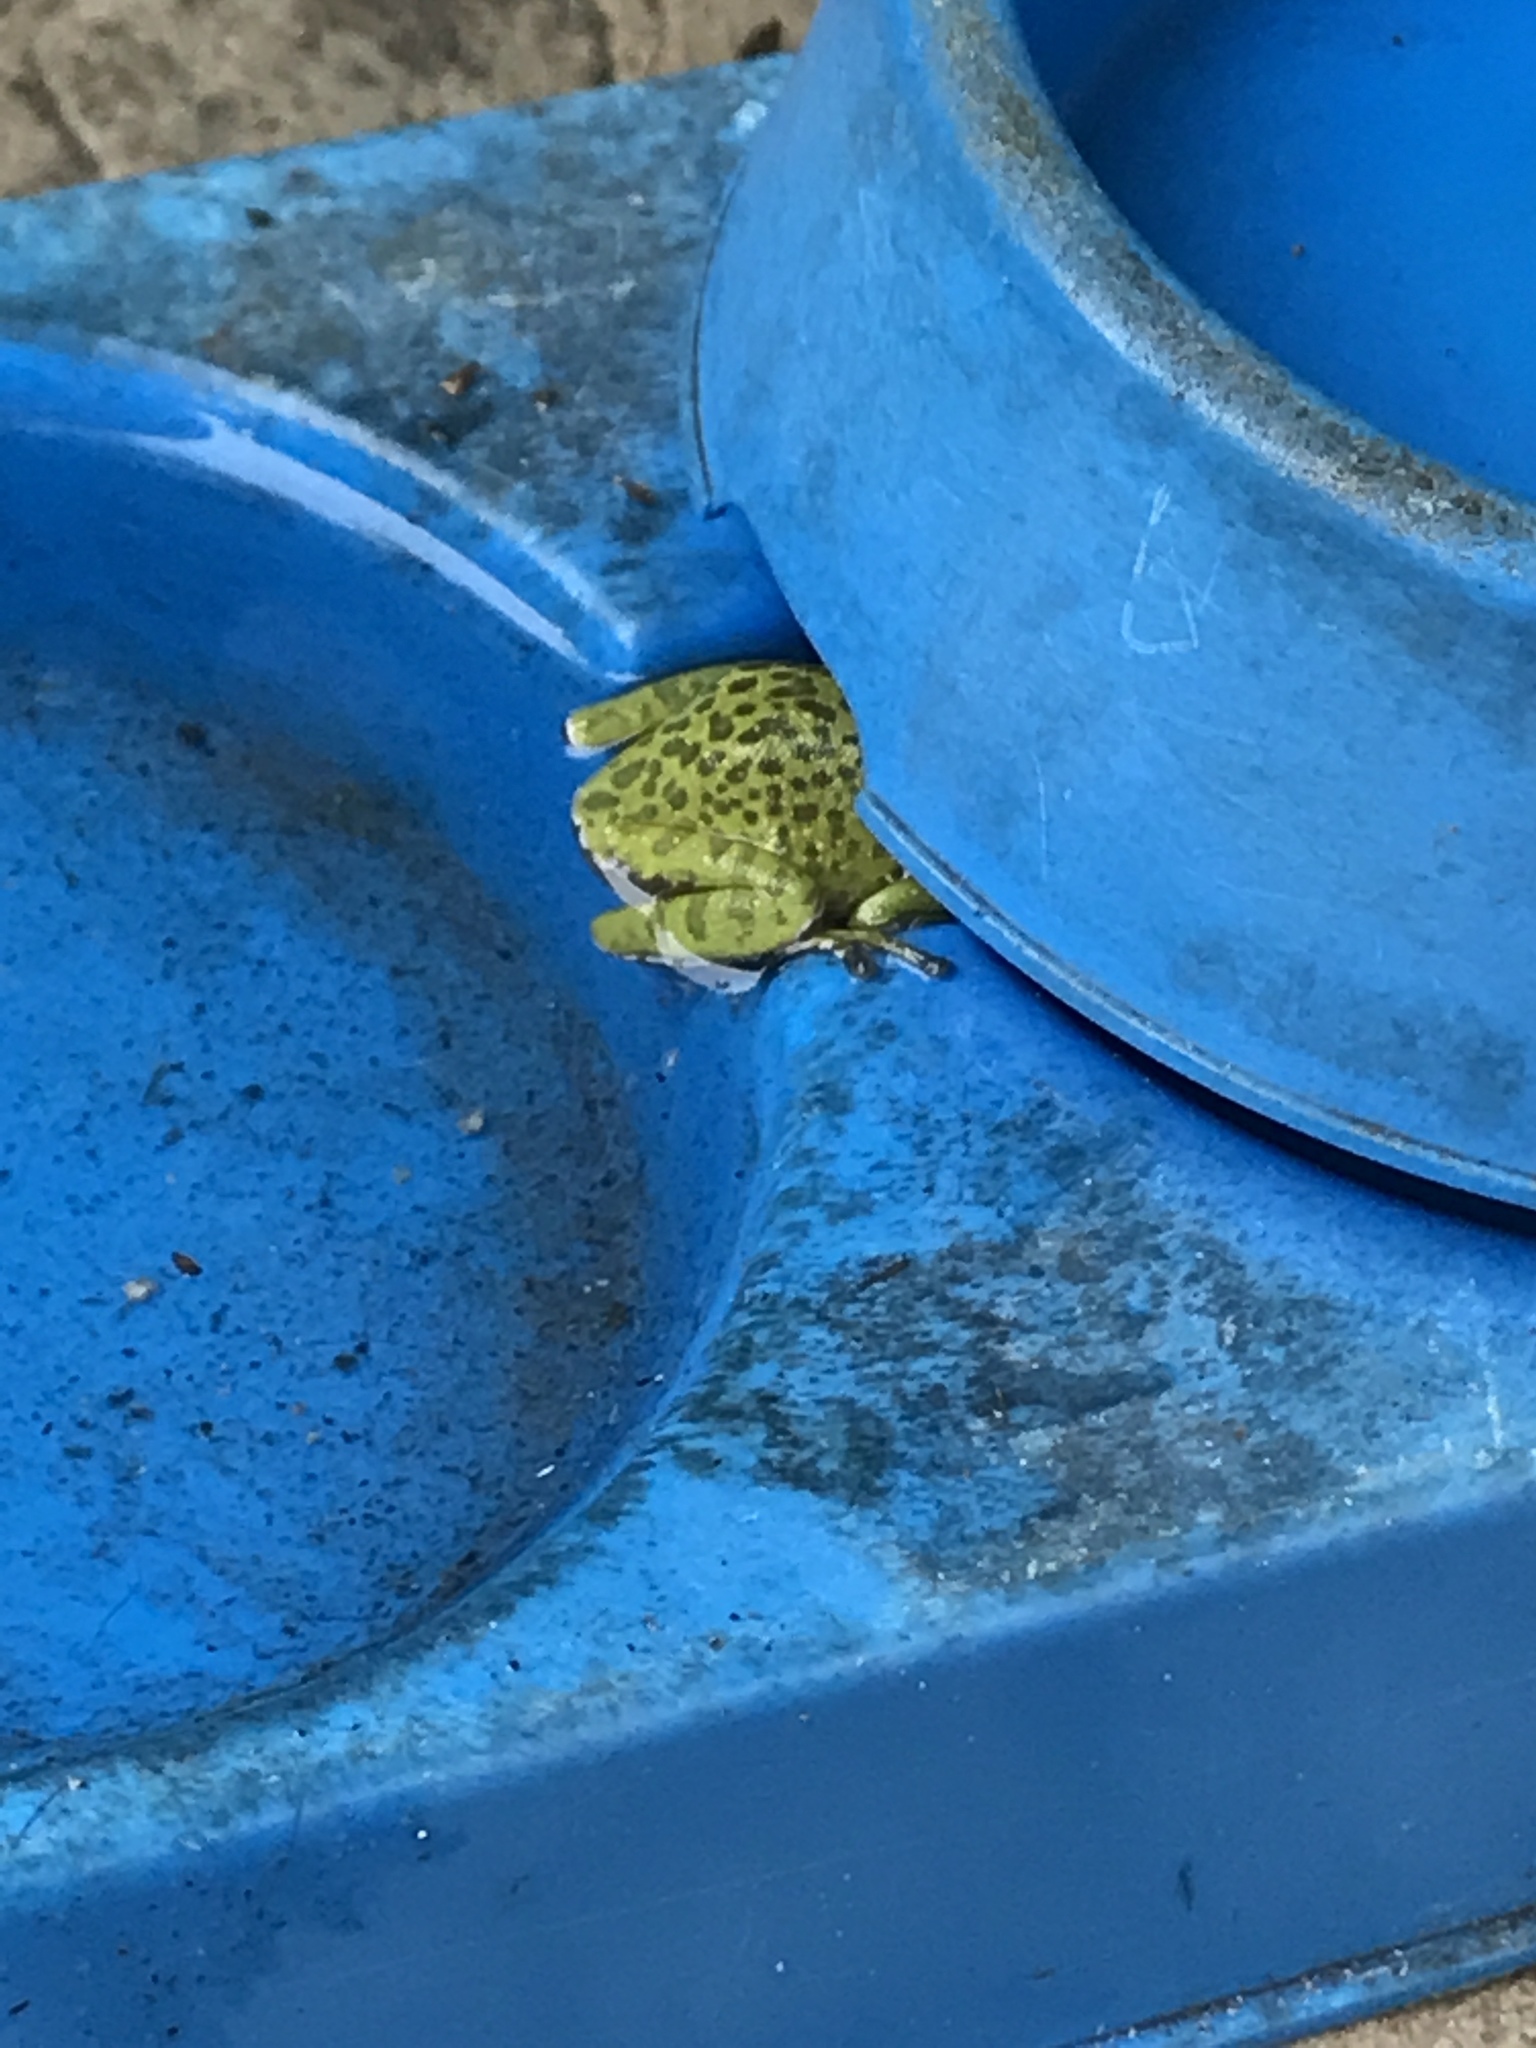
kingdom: Animalia
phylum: Chordata
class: Amphibia
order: Anura
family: Hylidae
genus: Dryophytes
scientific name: Dryophytes gratiosus
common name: Barking treefrog
